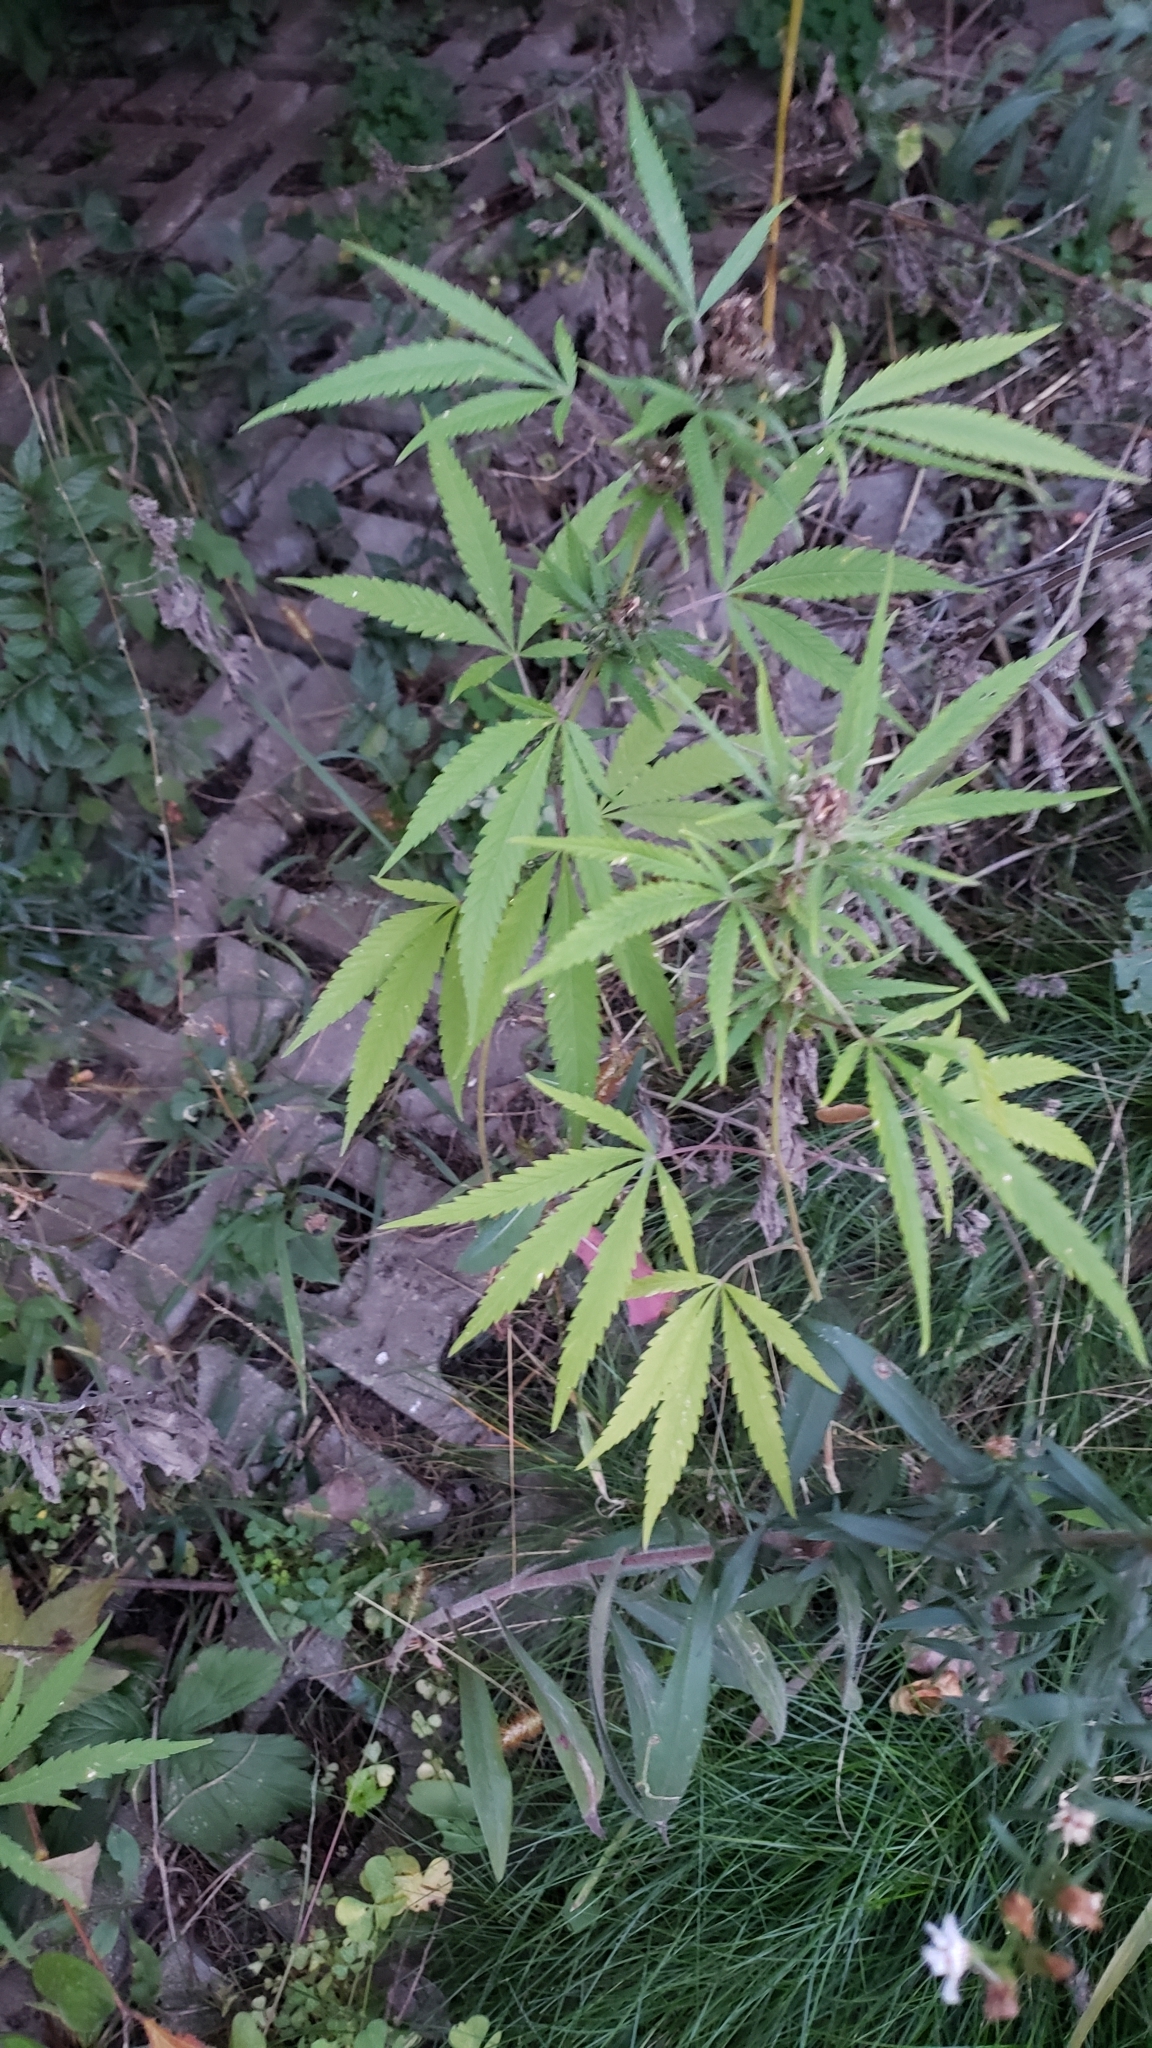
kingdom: Plantae
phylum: Tracheophyta
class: Magnoliopsida
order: Rosales
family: Cannabaceae
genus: Cannabis
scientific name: Cannabis sativa
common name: Hemp
